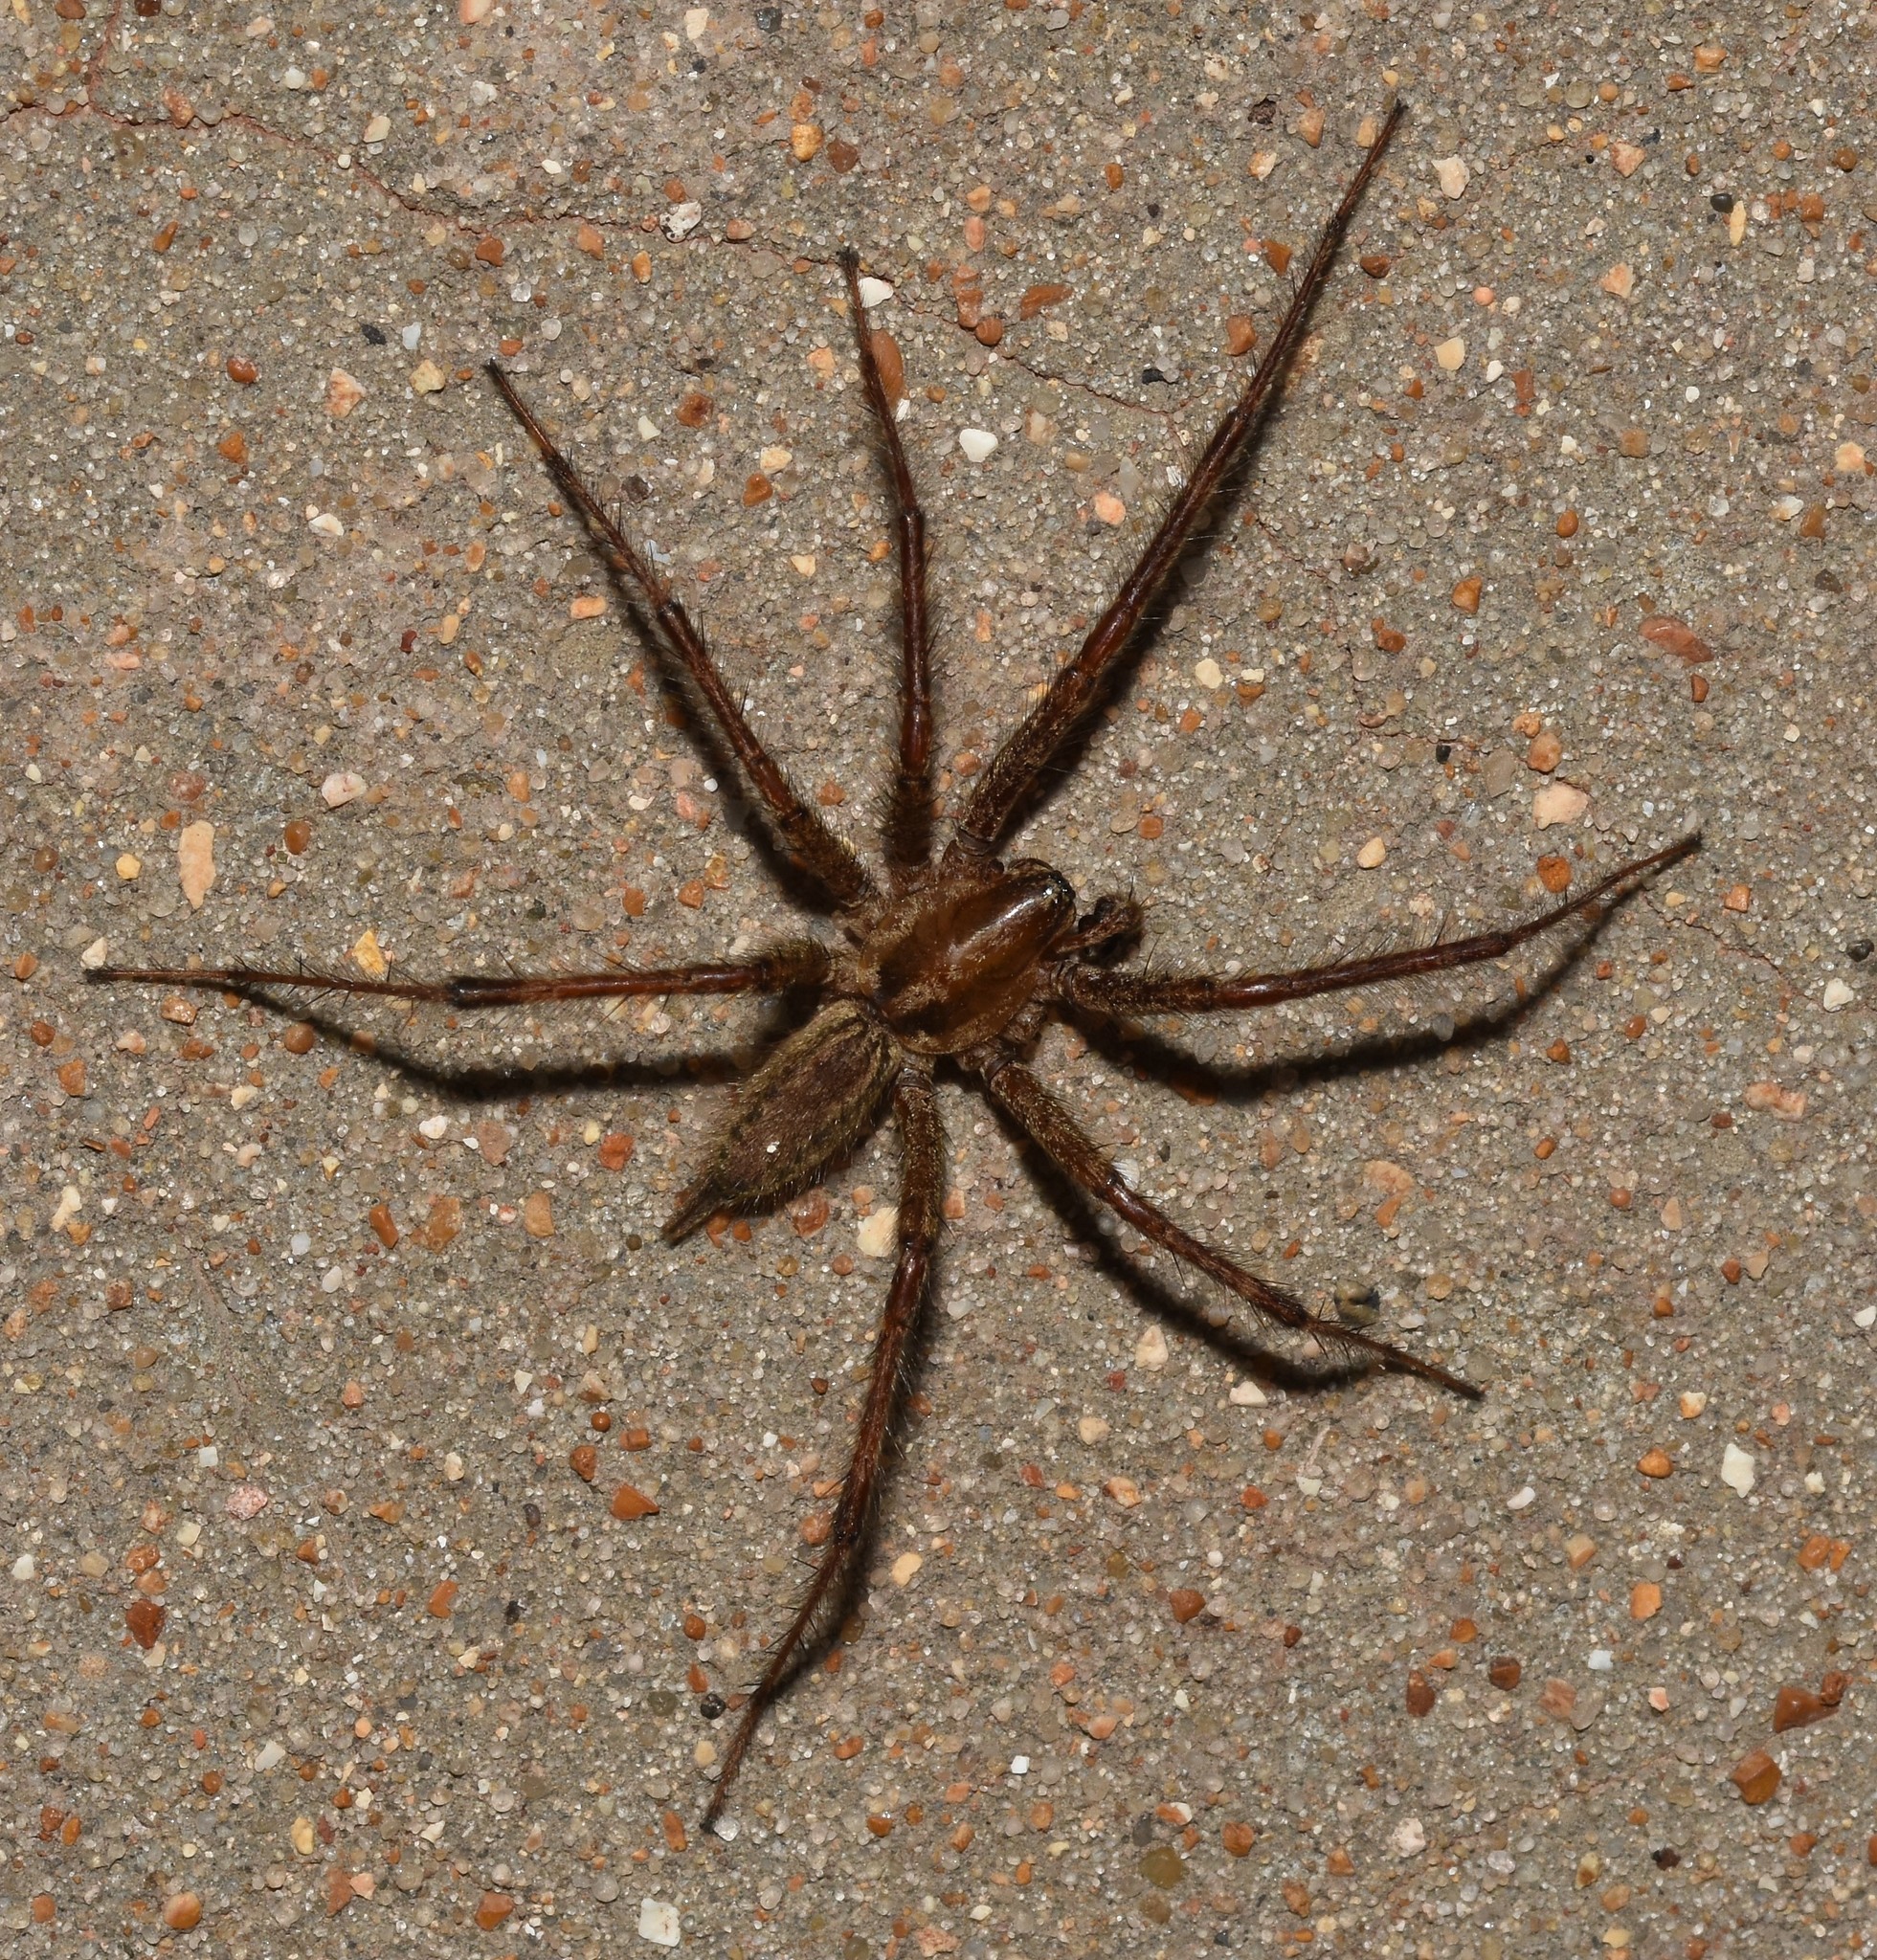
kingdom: Animalia
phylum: Arthropoda
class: Arachnida
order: Araneae
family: Agelenidae
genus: Agelenopsis
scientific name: Agelenopsis
